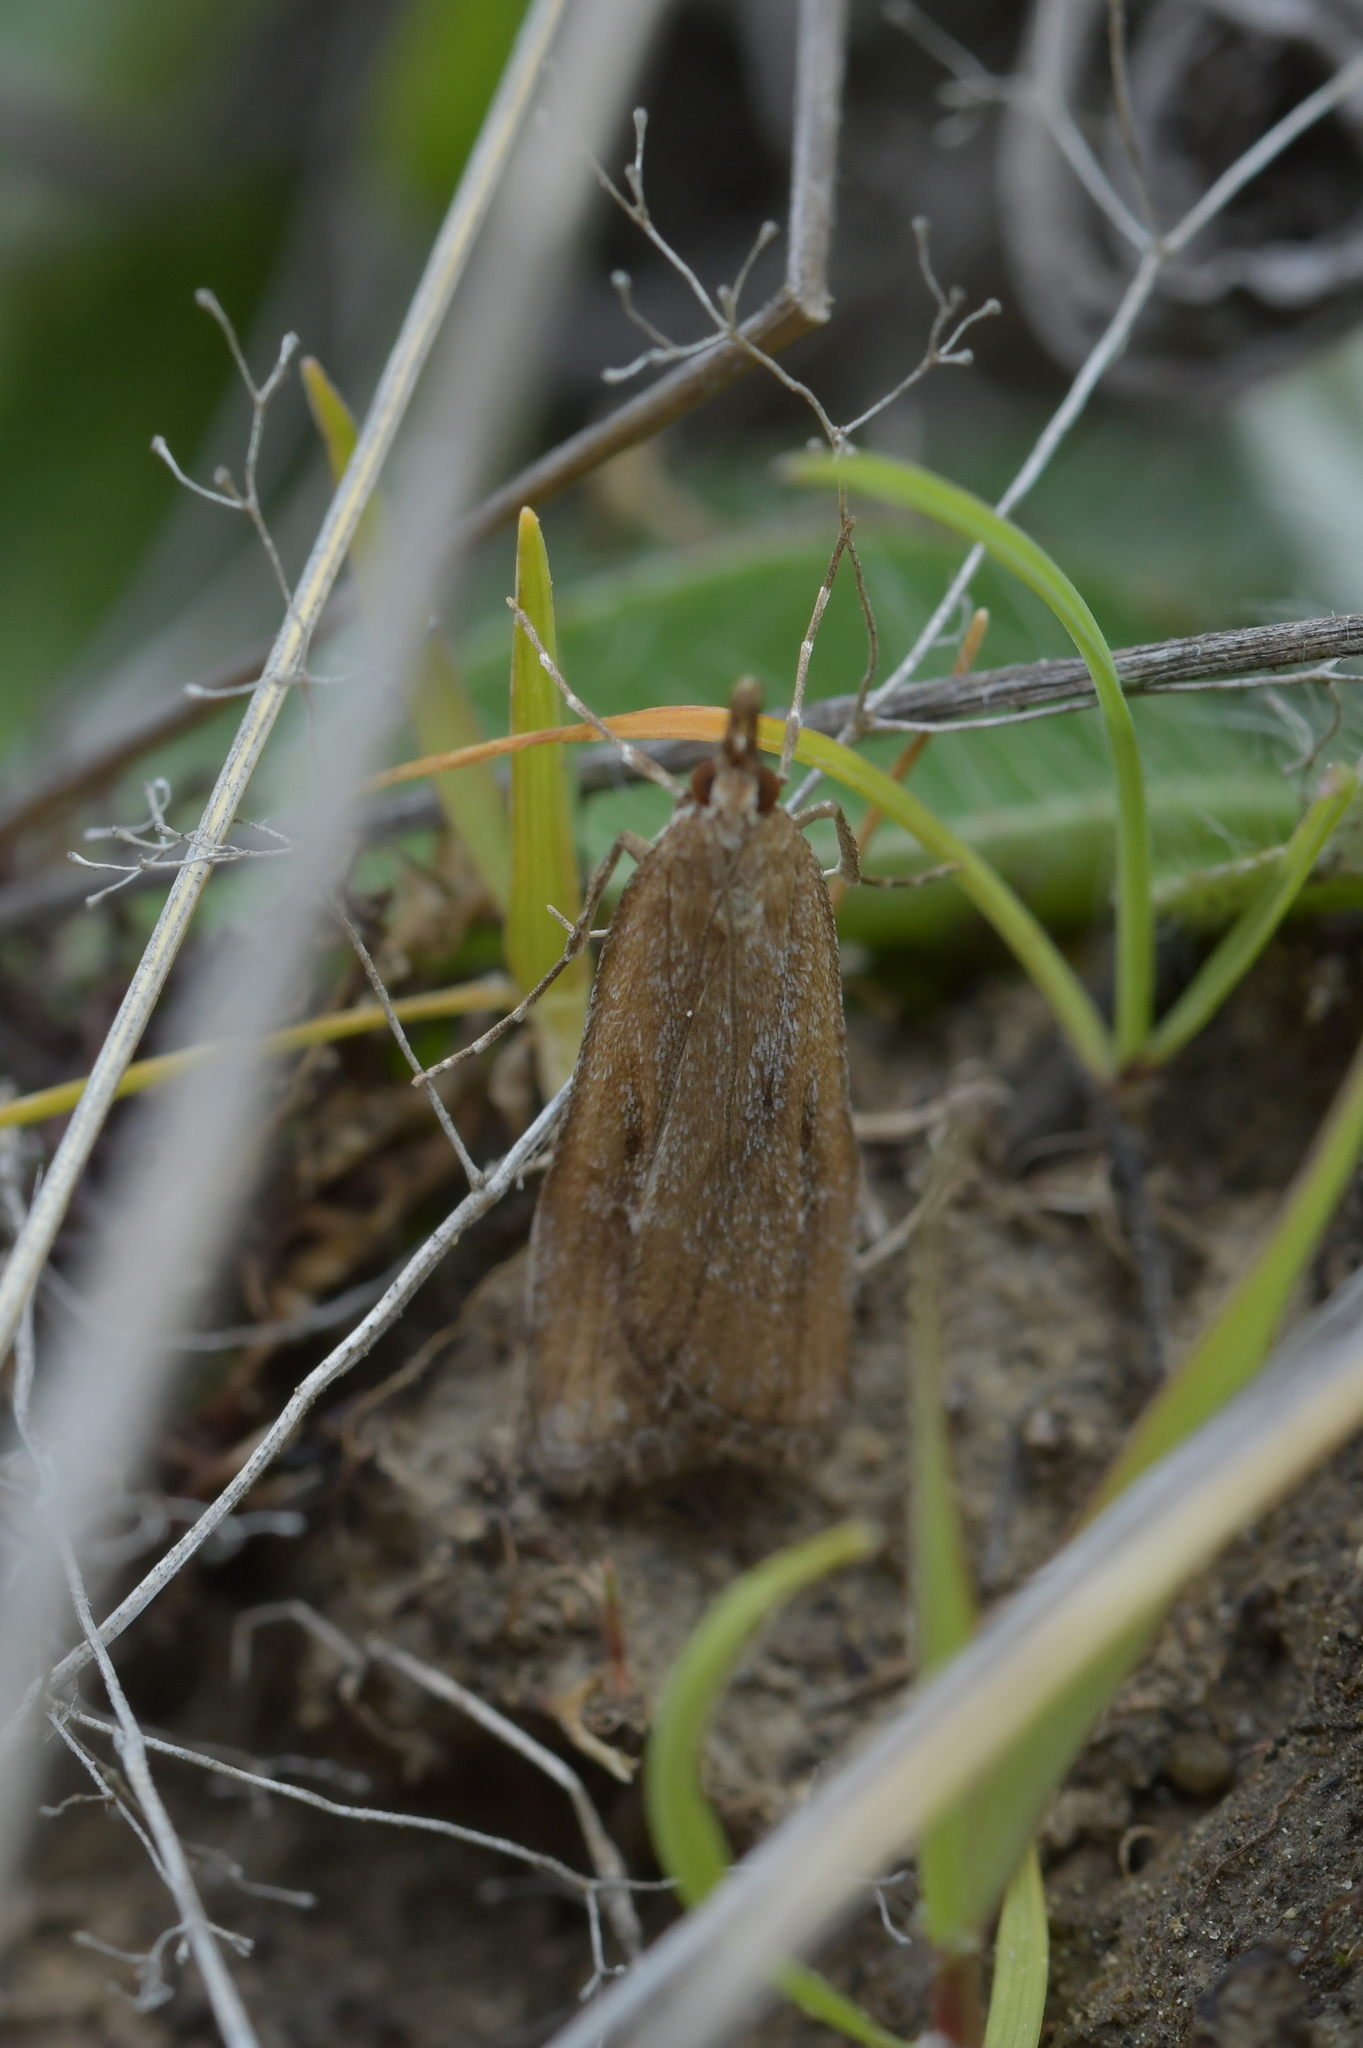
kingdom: Animalia
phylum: Arthropoda
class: Insecta
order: Lepidoptera
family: Crambidae
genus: Eudonia
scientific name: Eudonia chalara
